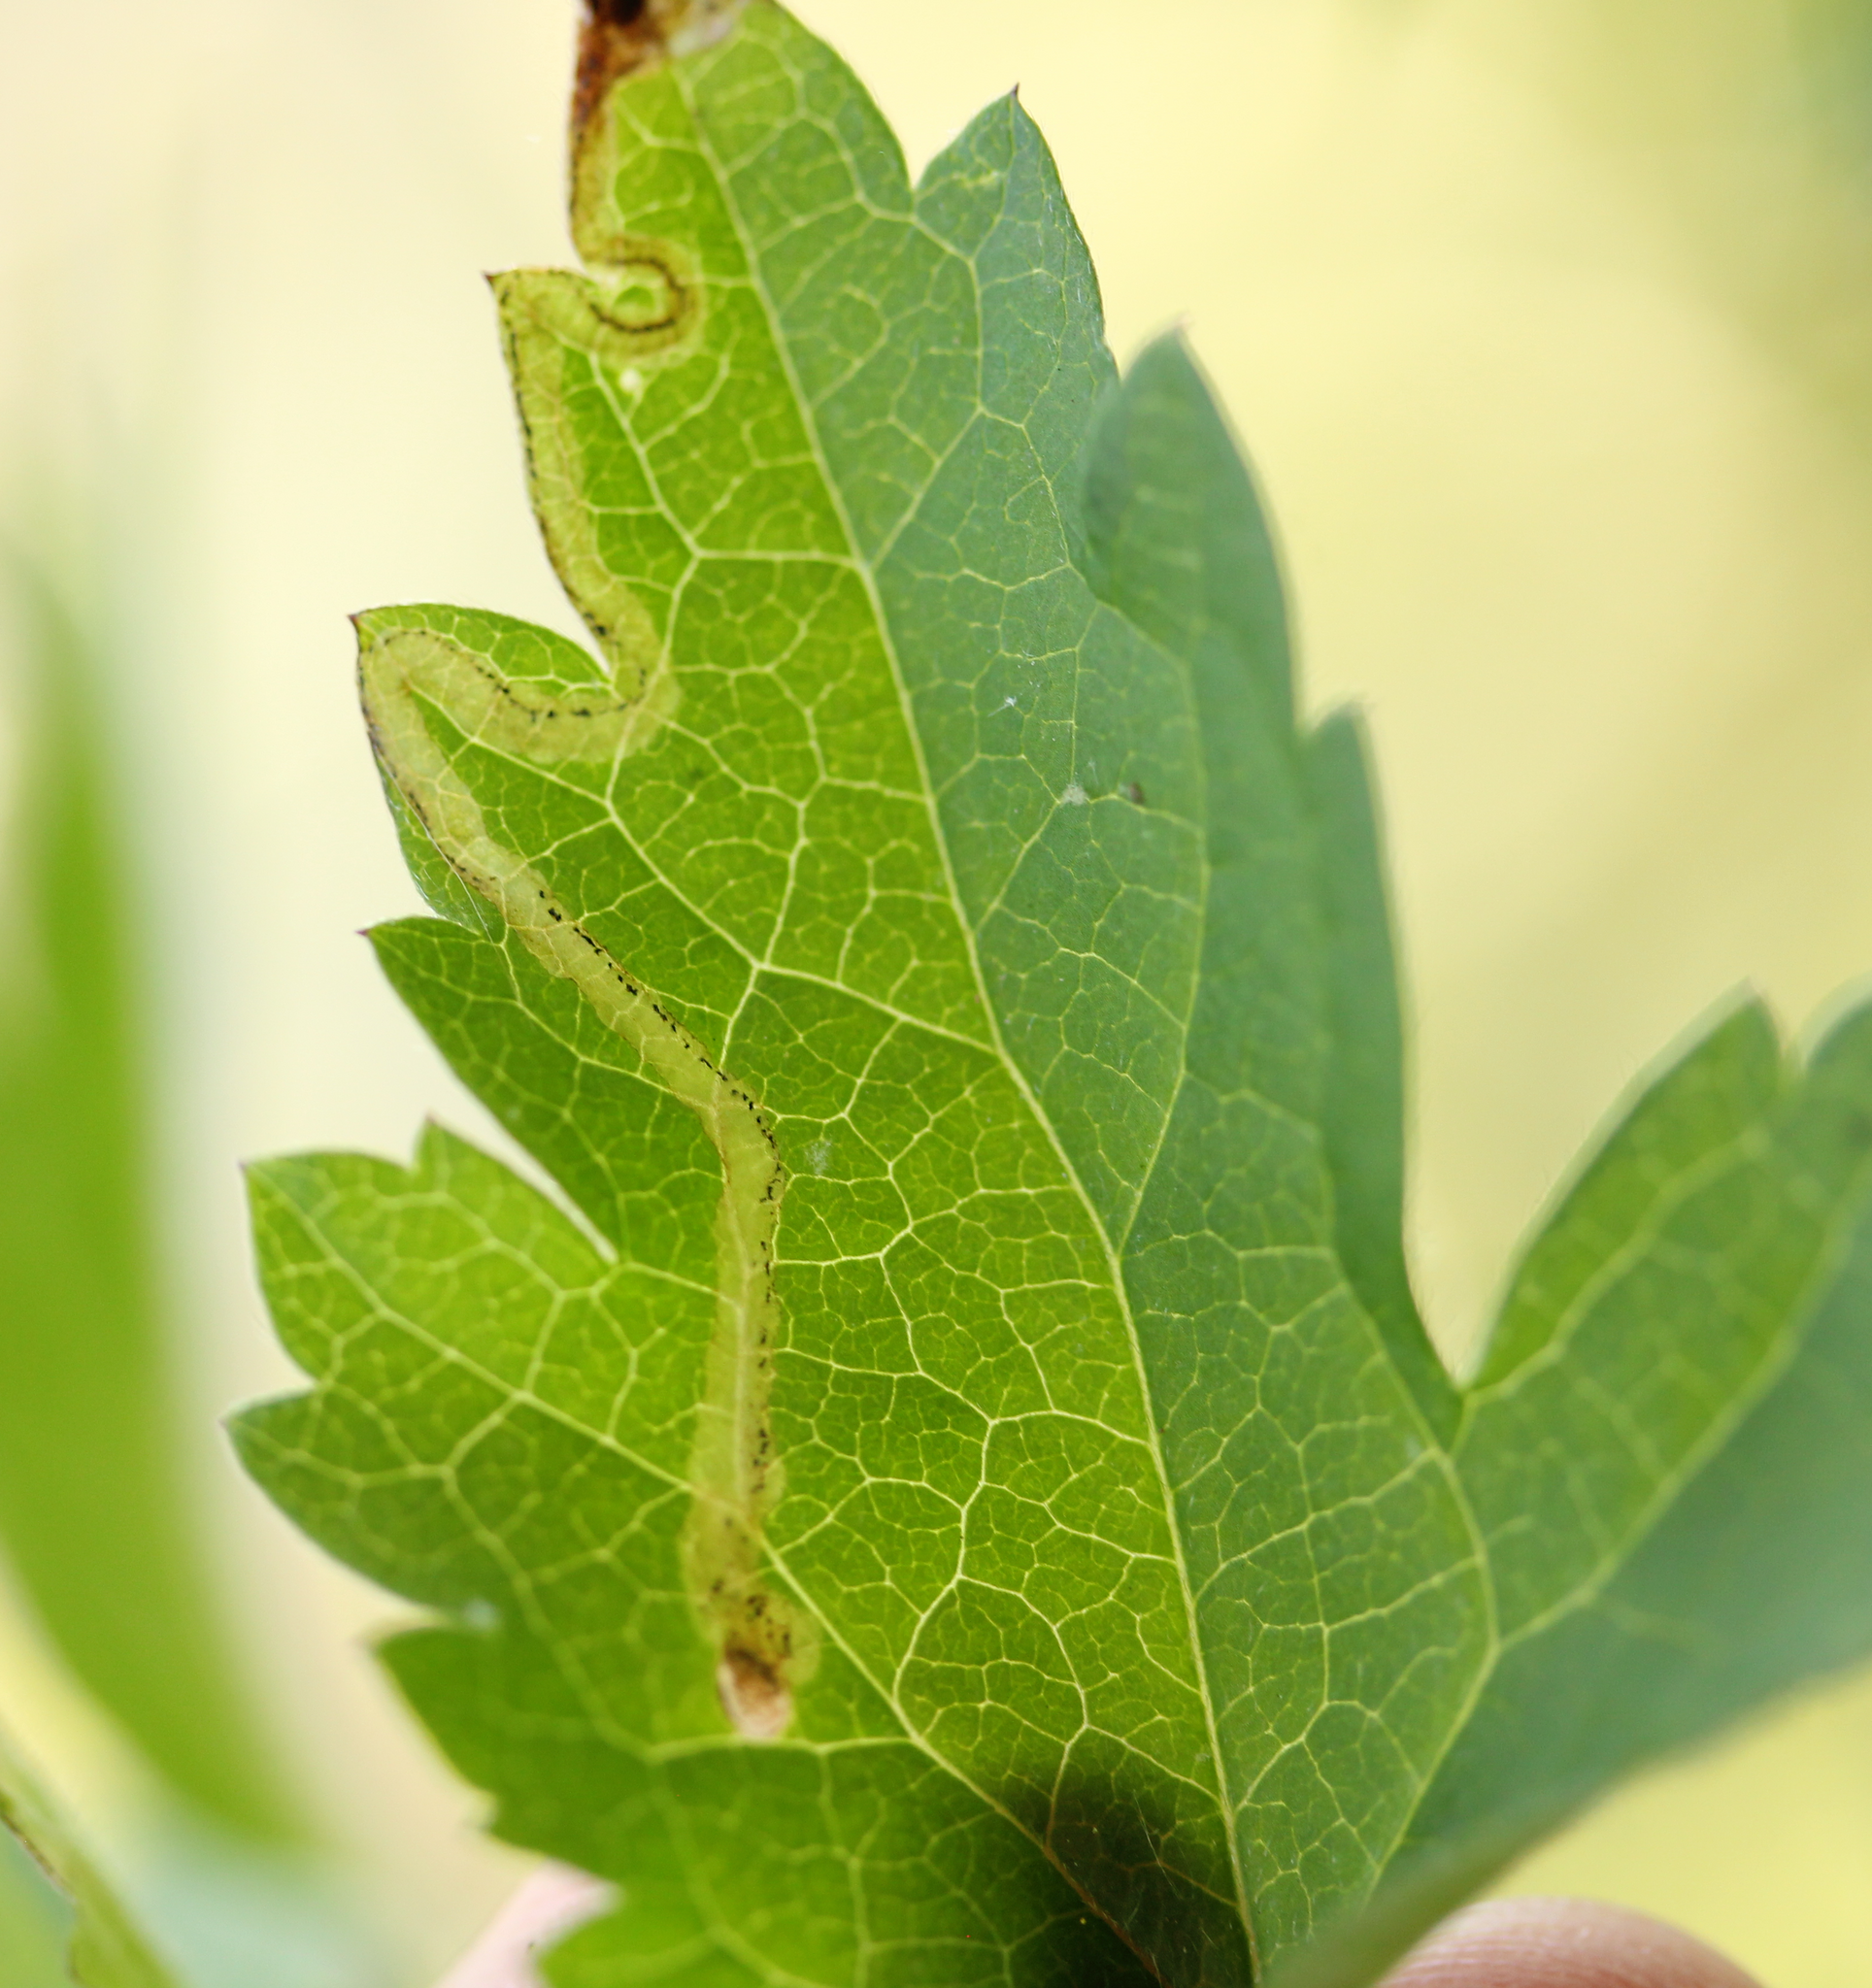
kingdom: Animalia
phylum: Arthropoda
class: Insecta
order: Diptera
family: Agromyzidae
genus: Phytomyza
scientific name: Phytomyza
